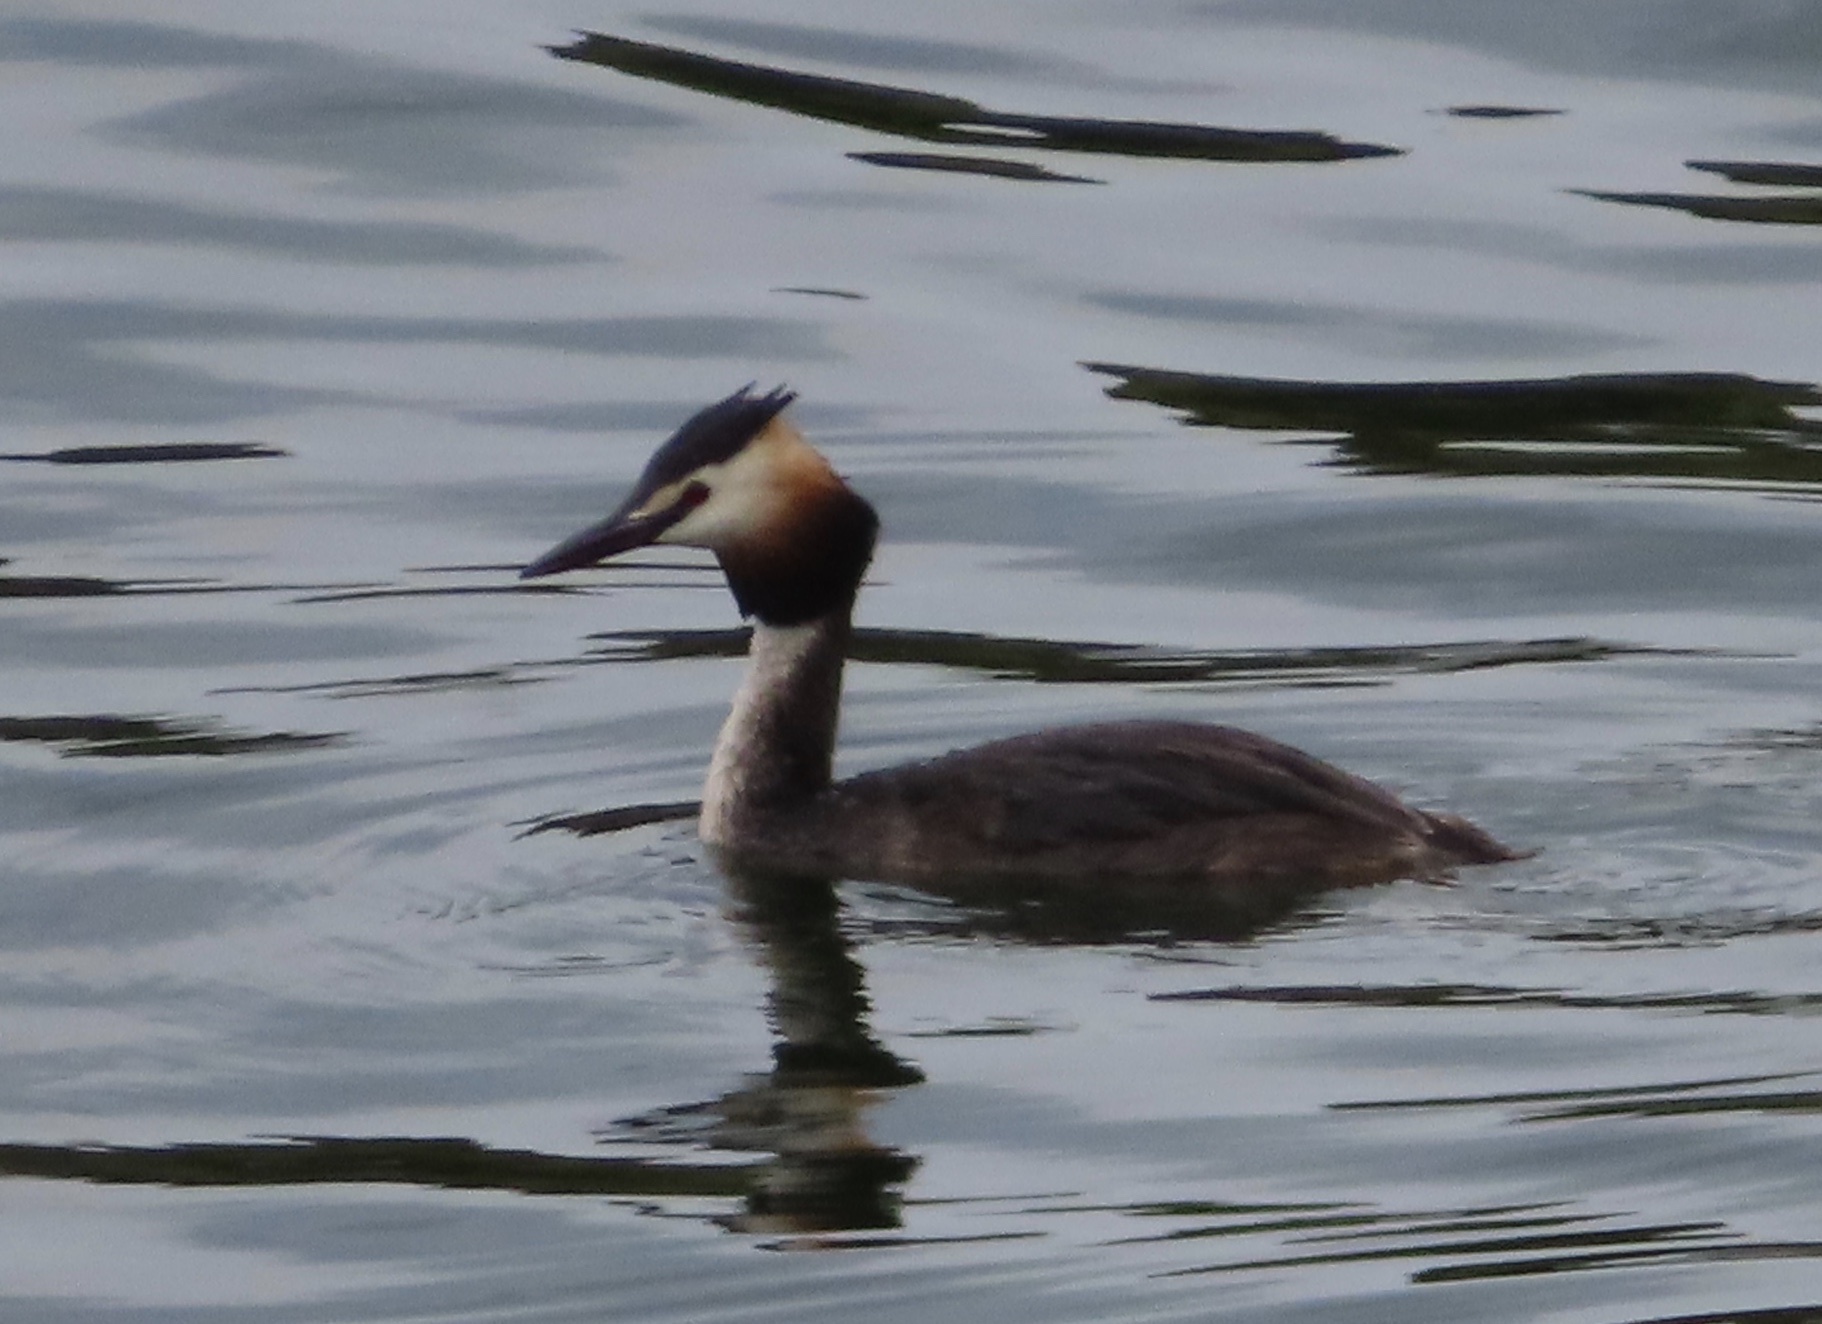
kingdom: Animalia
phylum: Chordata
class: Aves
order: Podicipediformes
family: Podicipedidae
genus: Podiceps
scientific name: Podiceps cristatus
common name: Great crested grebe
